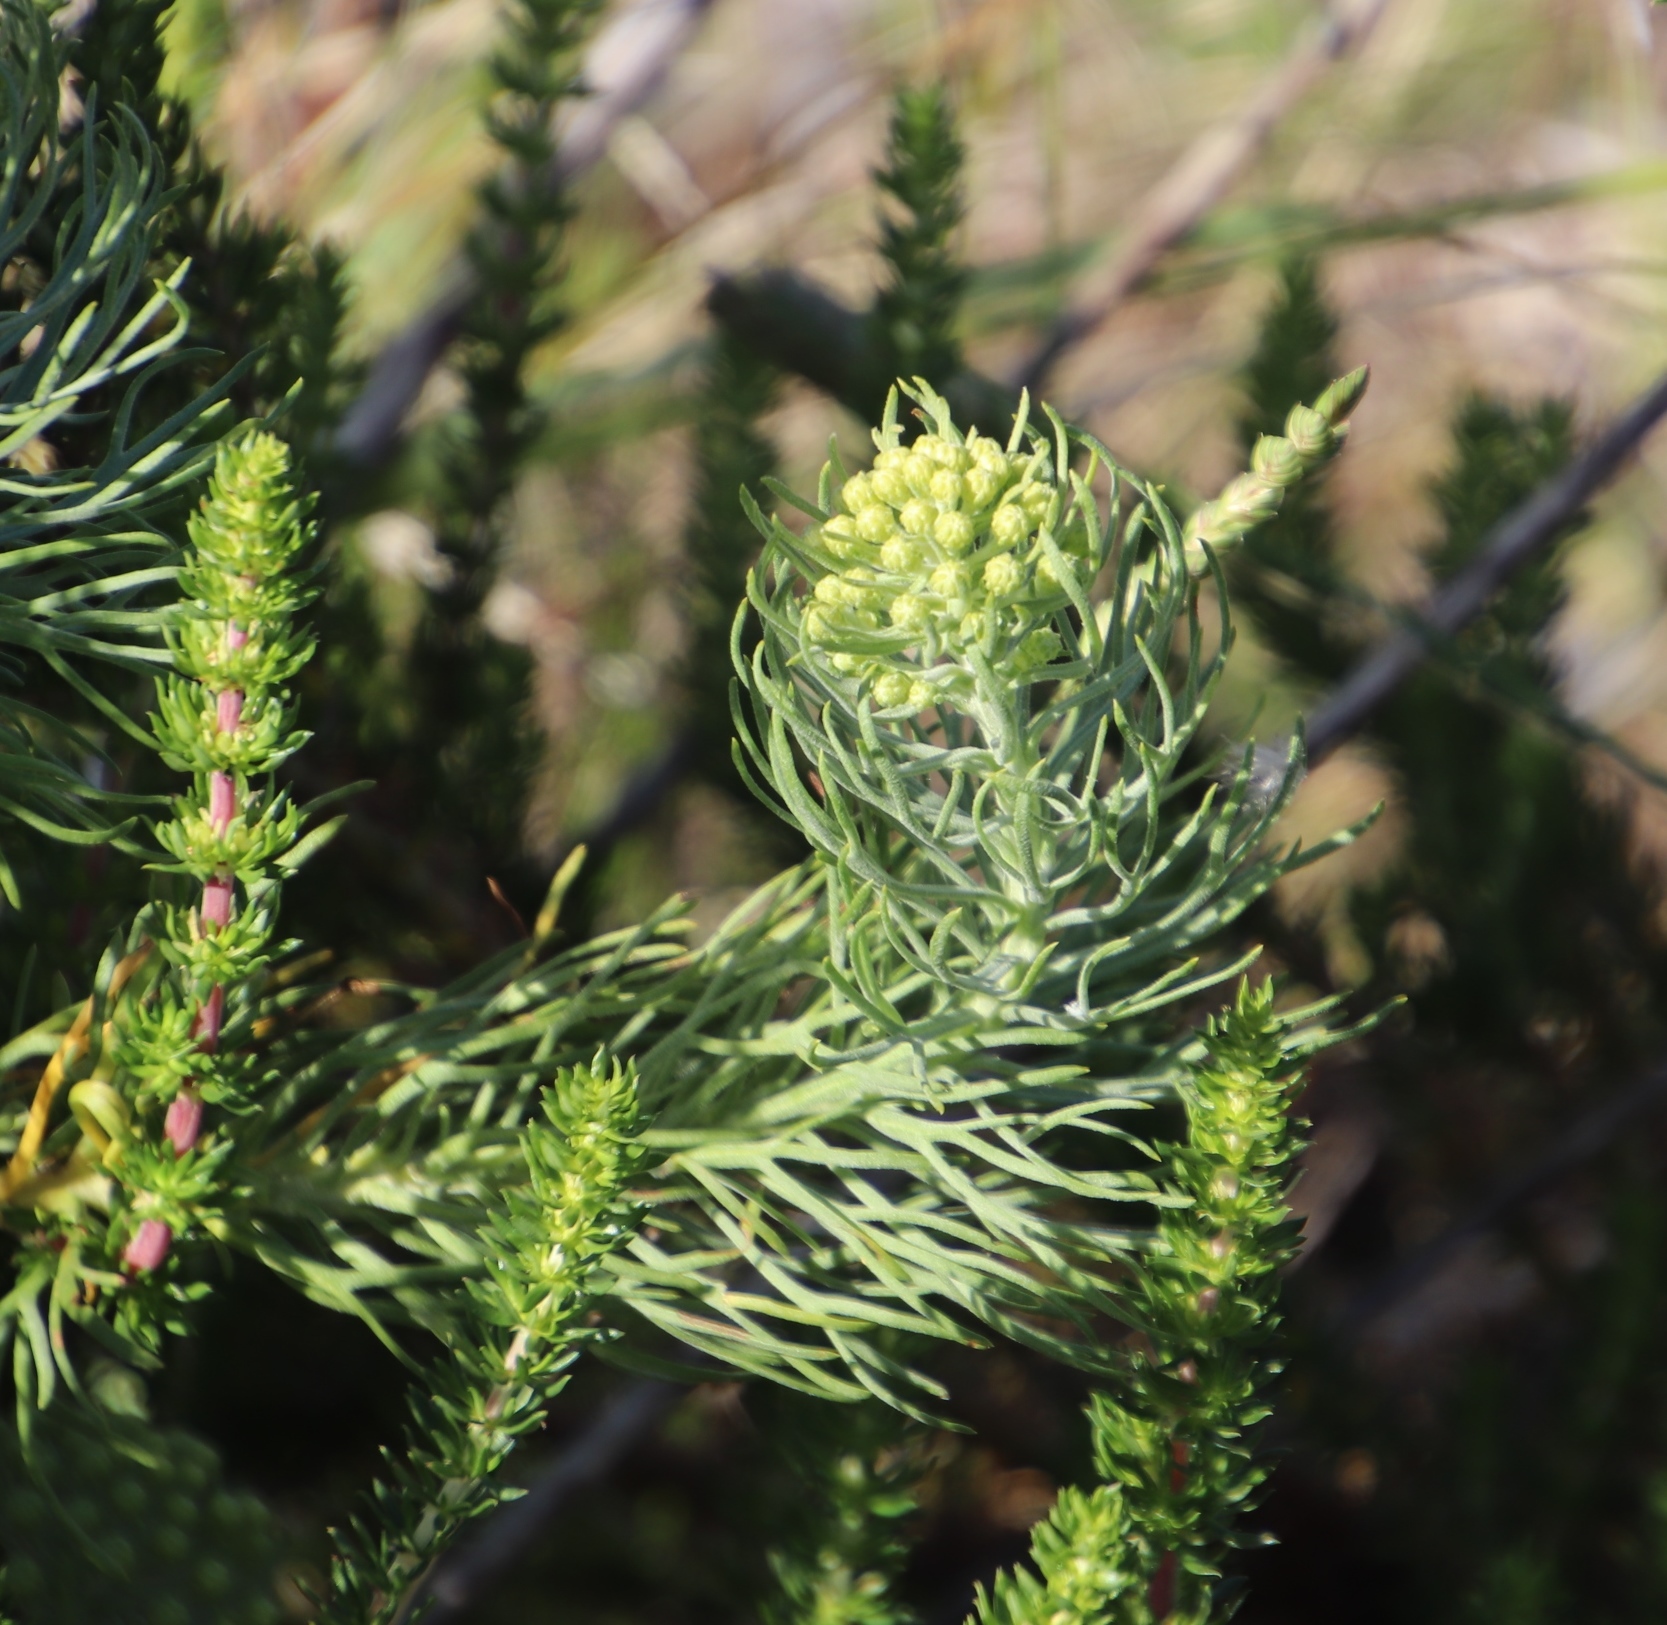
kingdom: Plantae
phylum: Tracheophyta
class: Magnoliopsida
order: Asterales
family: Asteraceae
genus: Athanasia
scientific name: Athanasia crithmifolia
